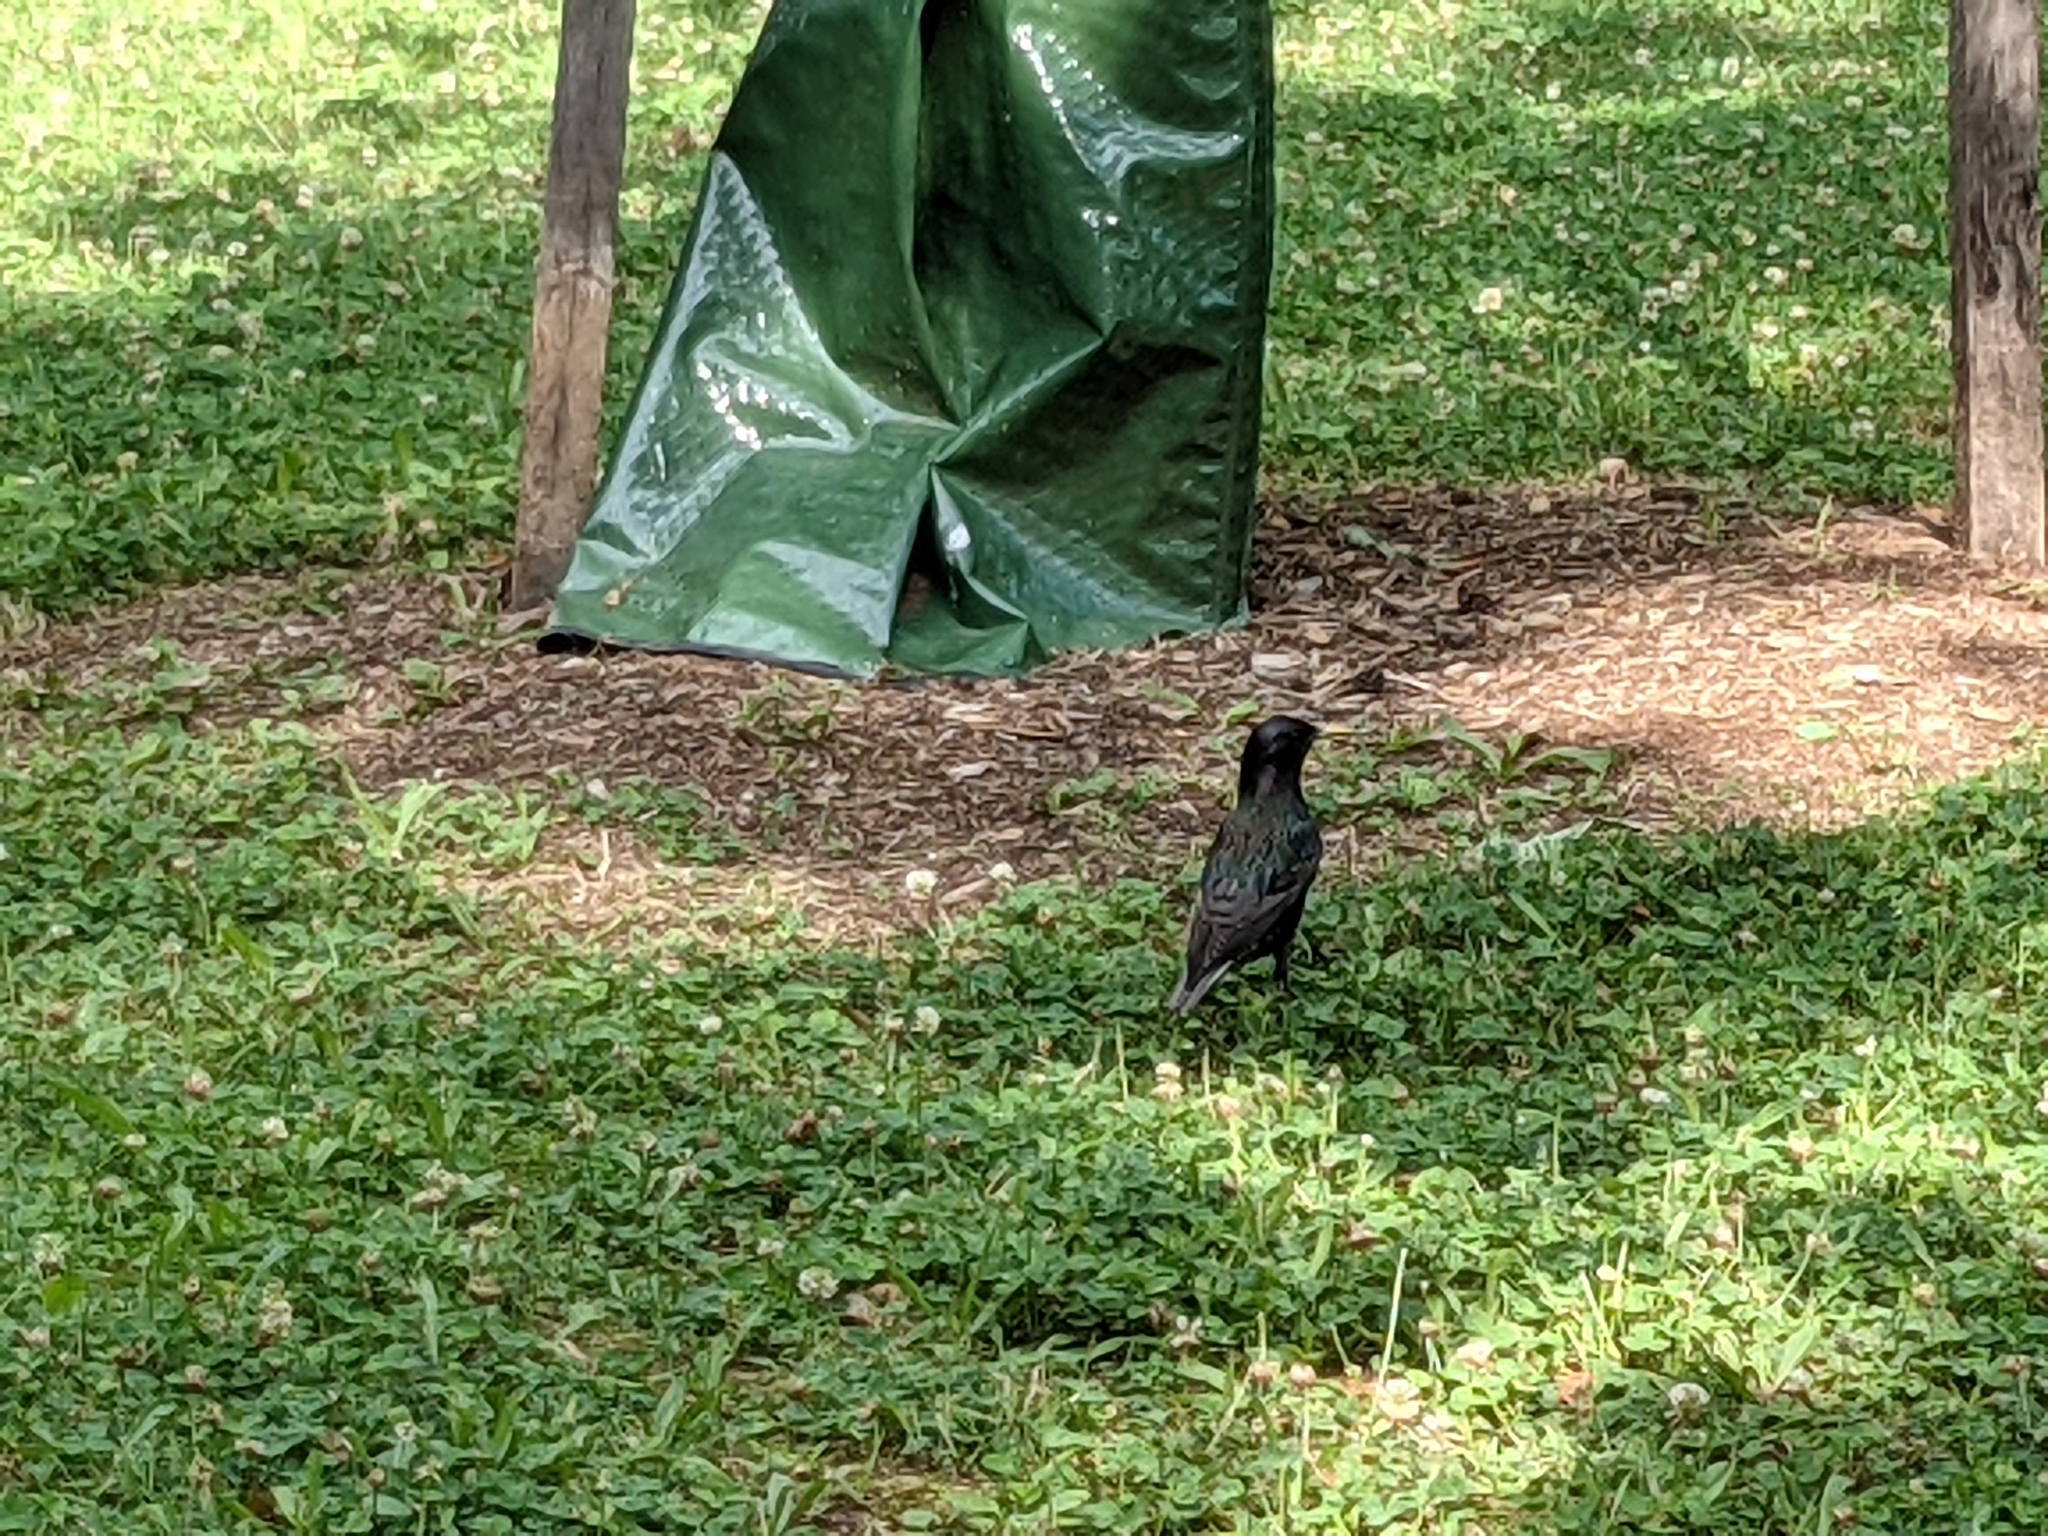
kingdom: Animalia
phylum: Chordata
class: Aves
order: Passeriformes
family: Sturnidae
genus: Sturnus
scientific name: Sturnus vulgaris
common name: Common starling
